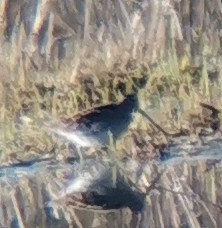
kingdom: Animalia
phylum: Chordata
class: Aves
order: Charadriiformes
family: Scolopacidae
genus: Gallinago
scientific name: Gallinago gallinago
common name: Common snipe
